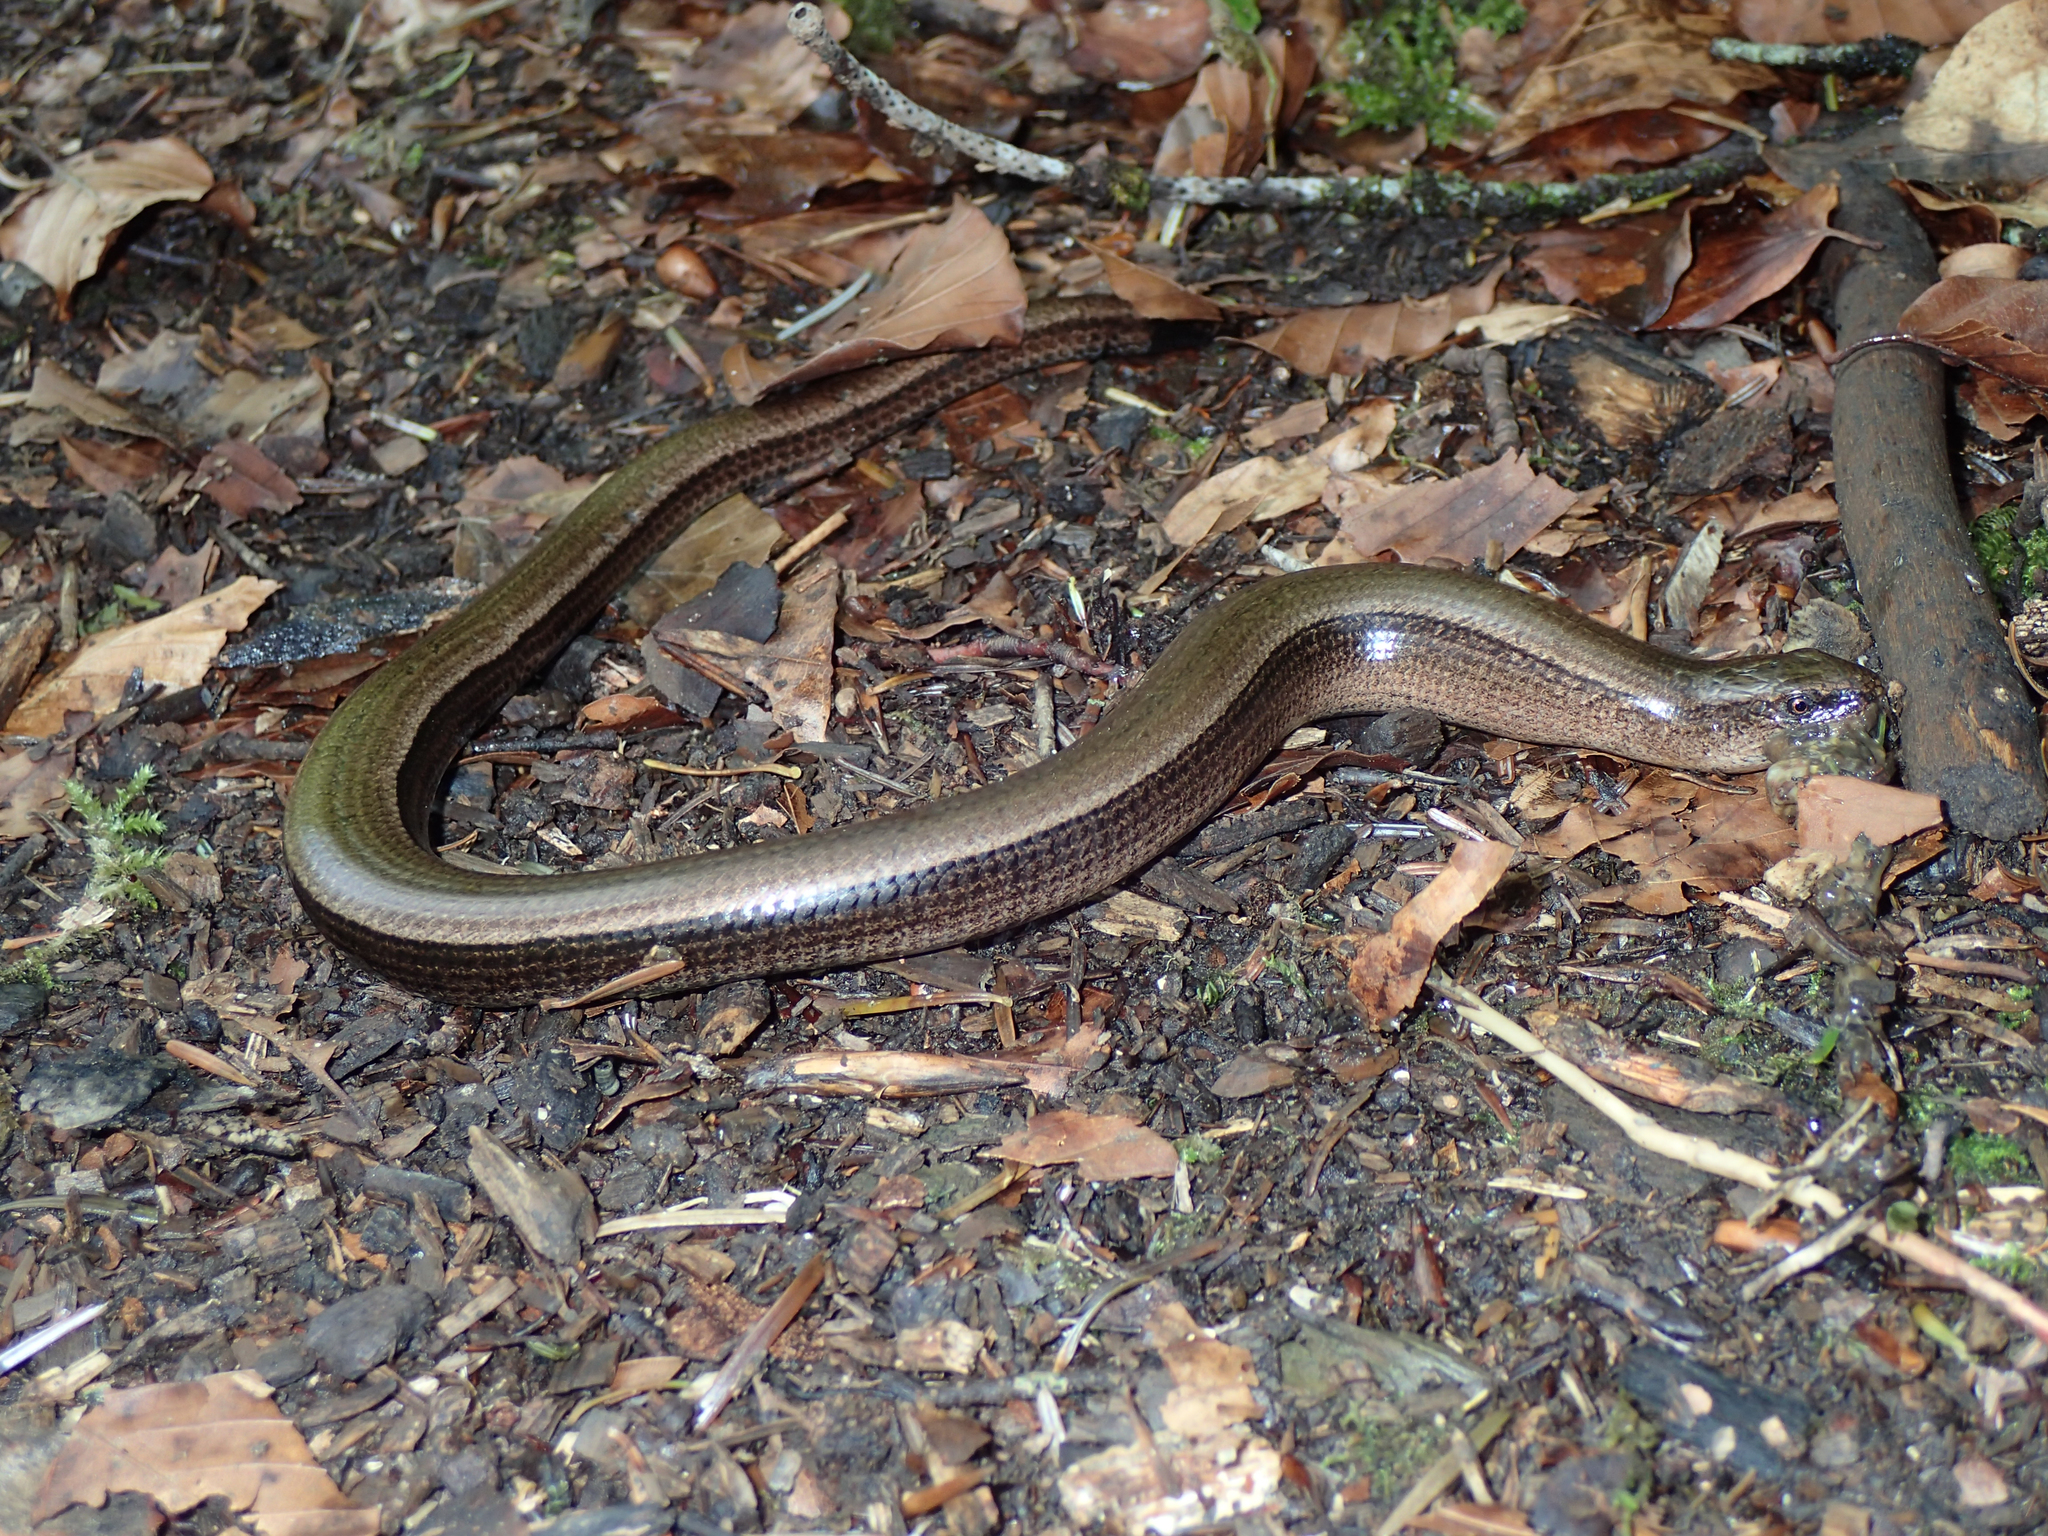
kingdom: Animalia
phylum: Chordata
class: Squamata
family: Anguidae
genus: Anguis
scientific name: Anguis fragilis
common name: Slow worm
